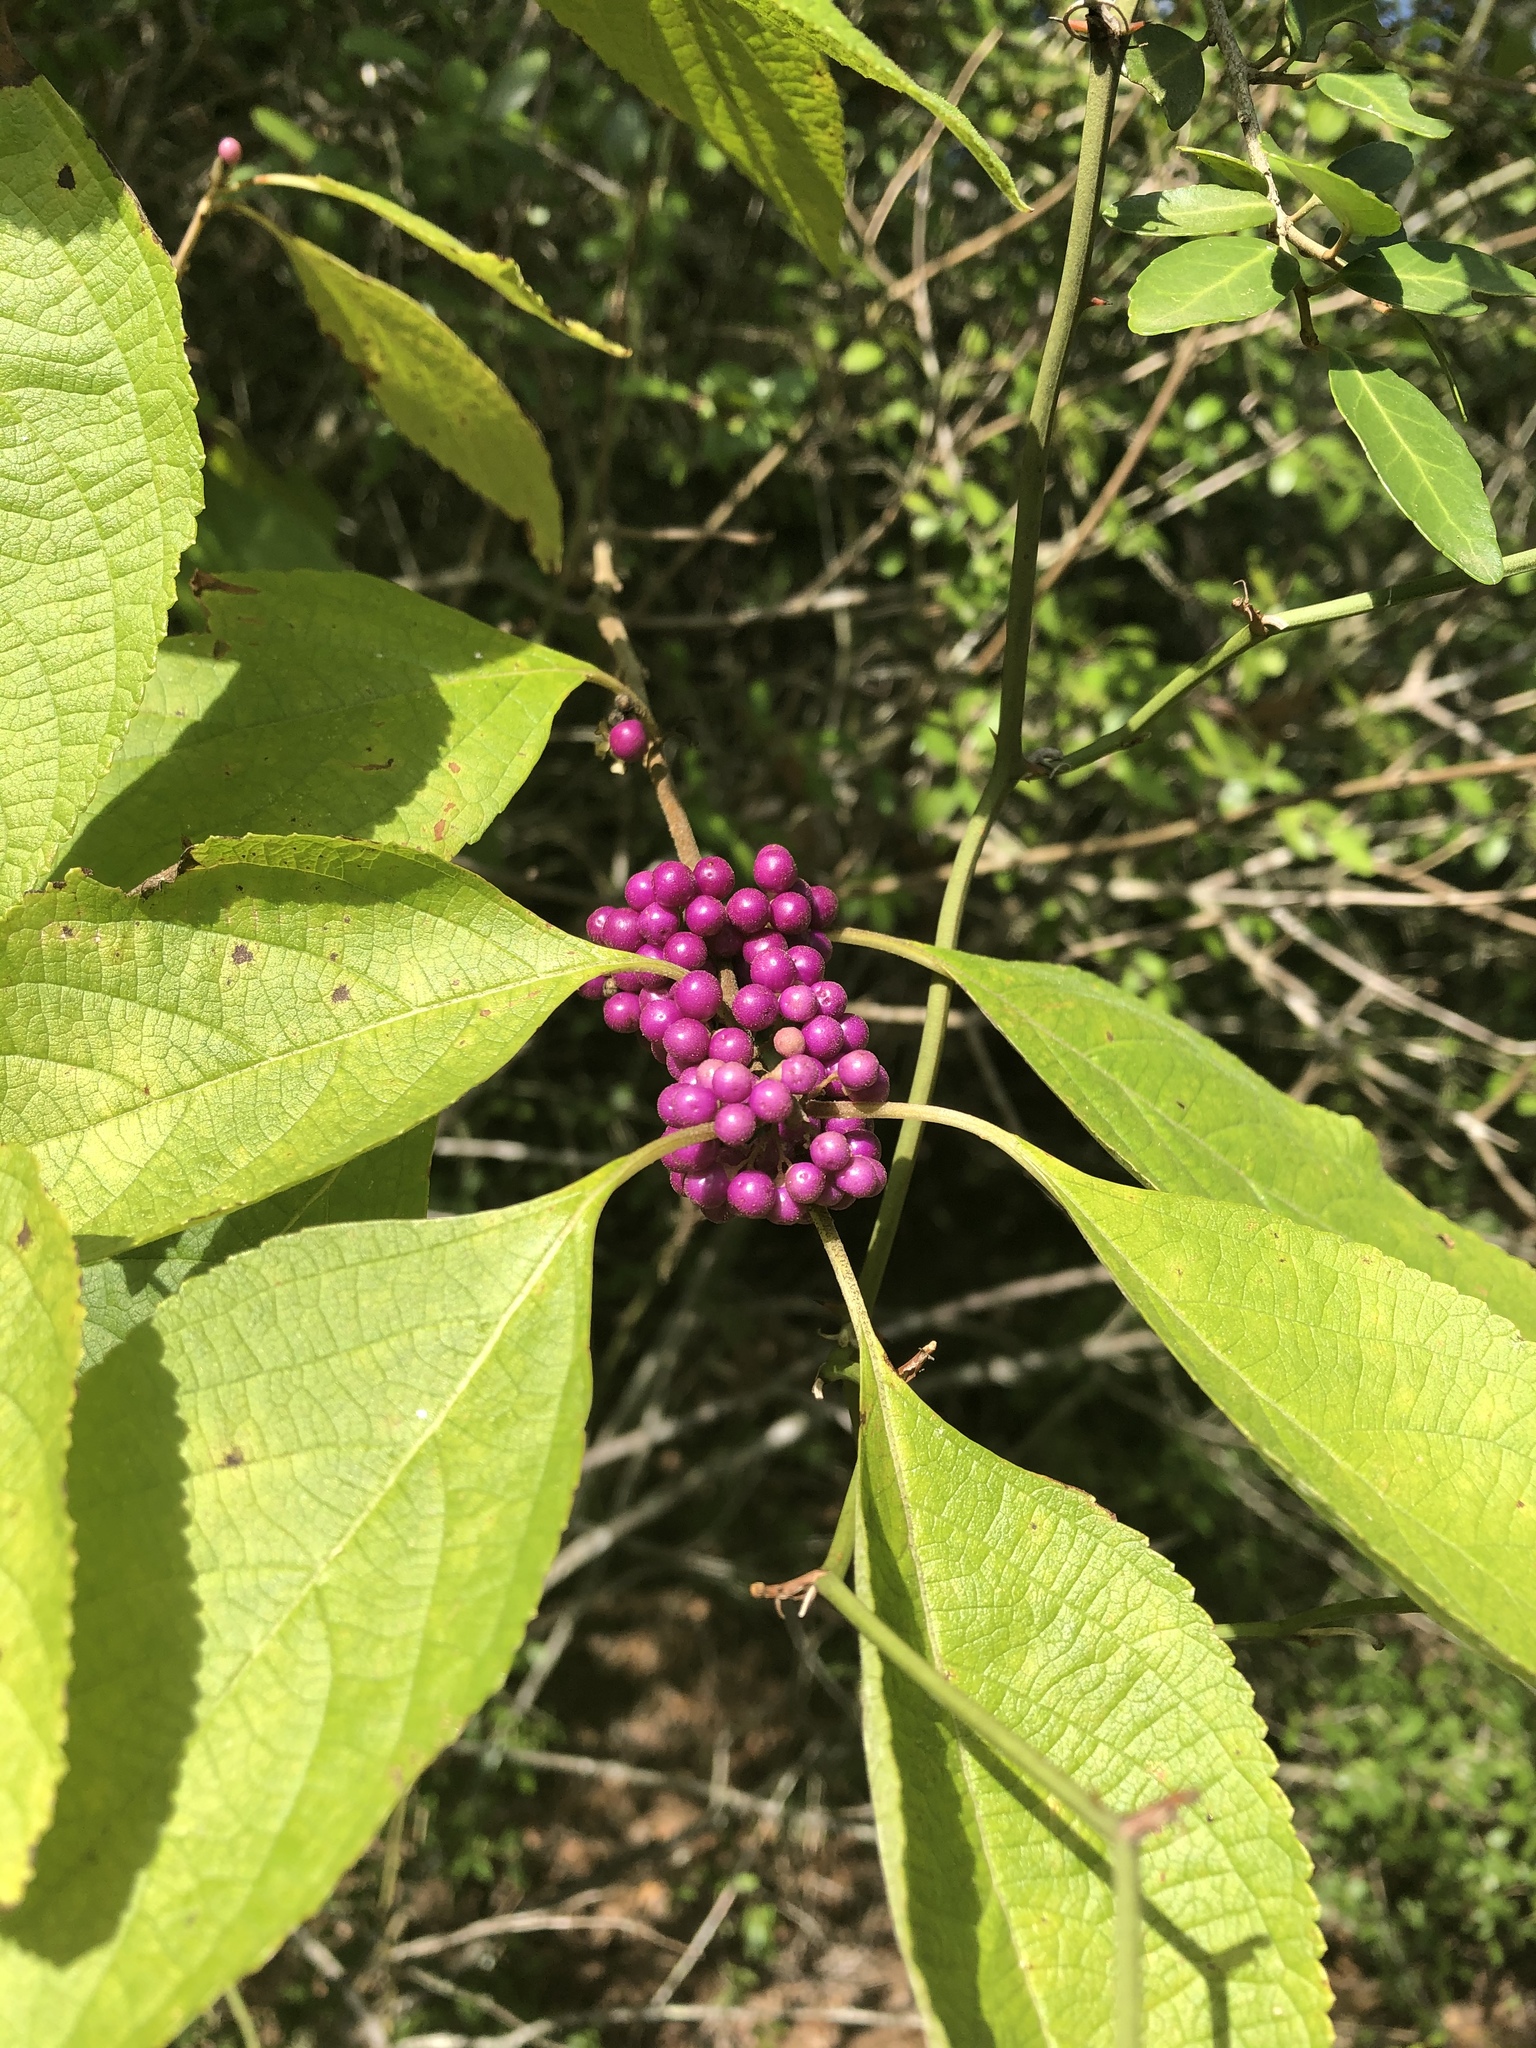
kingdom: Plantae
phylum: Tracheophyta
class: Magnoliopsida
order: Lamiales
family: Lamiaceae
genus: Callicarpa
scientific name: Callicarpa americana
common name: American beautyberry
